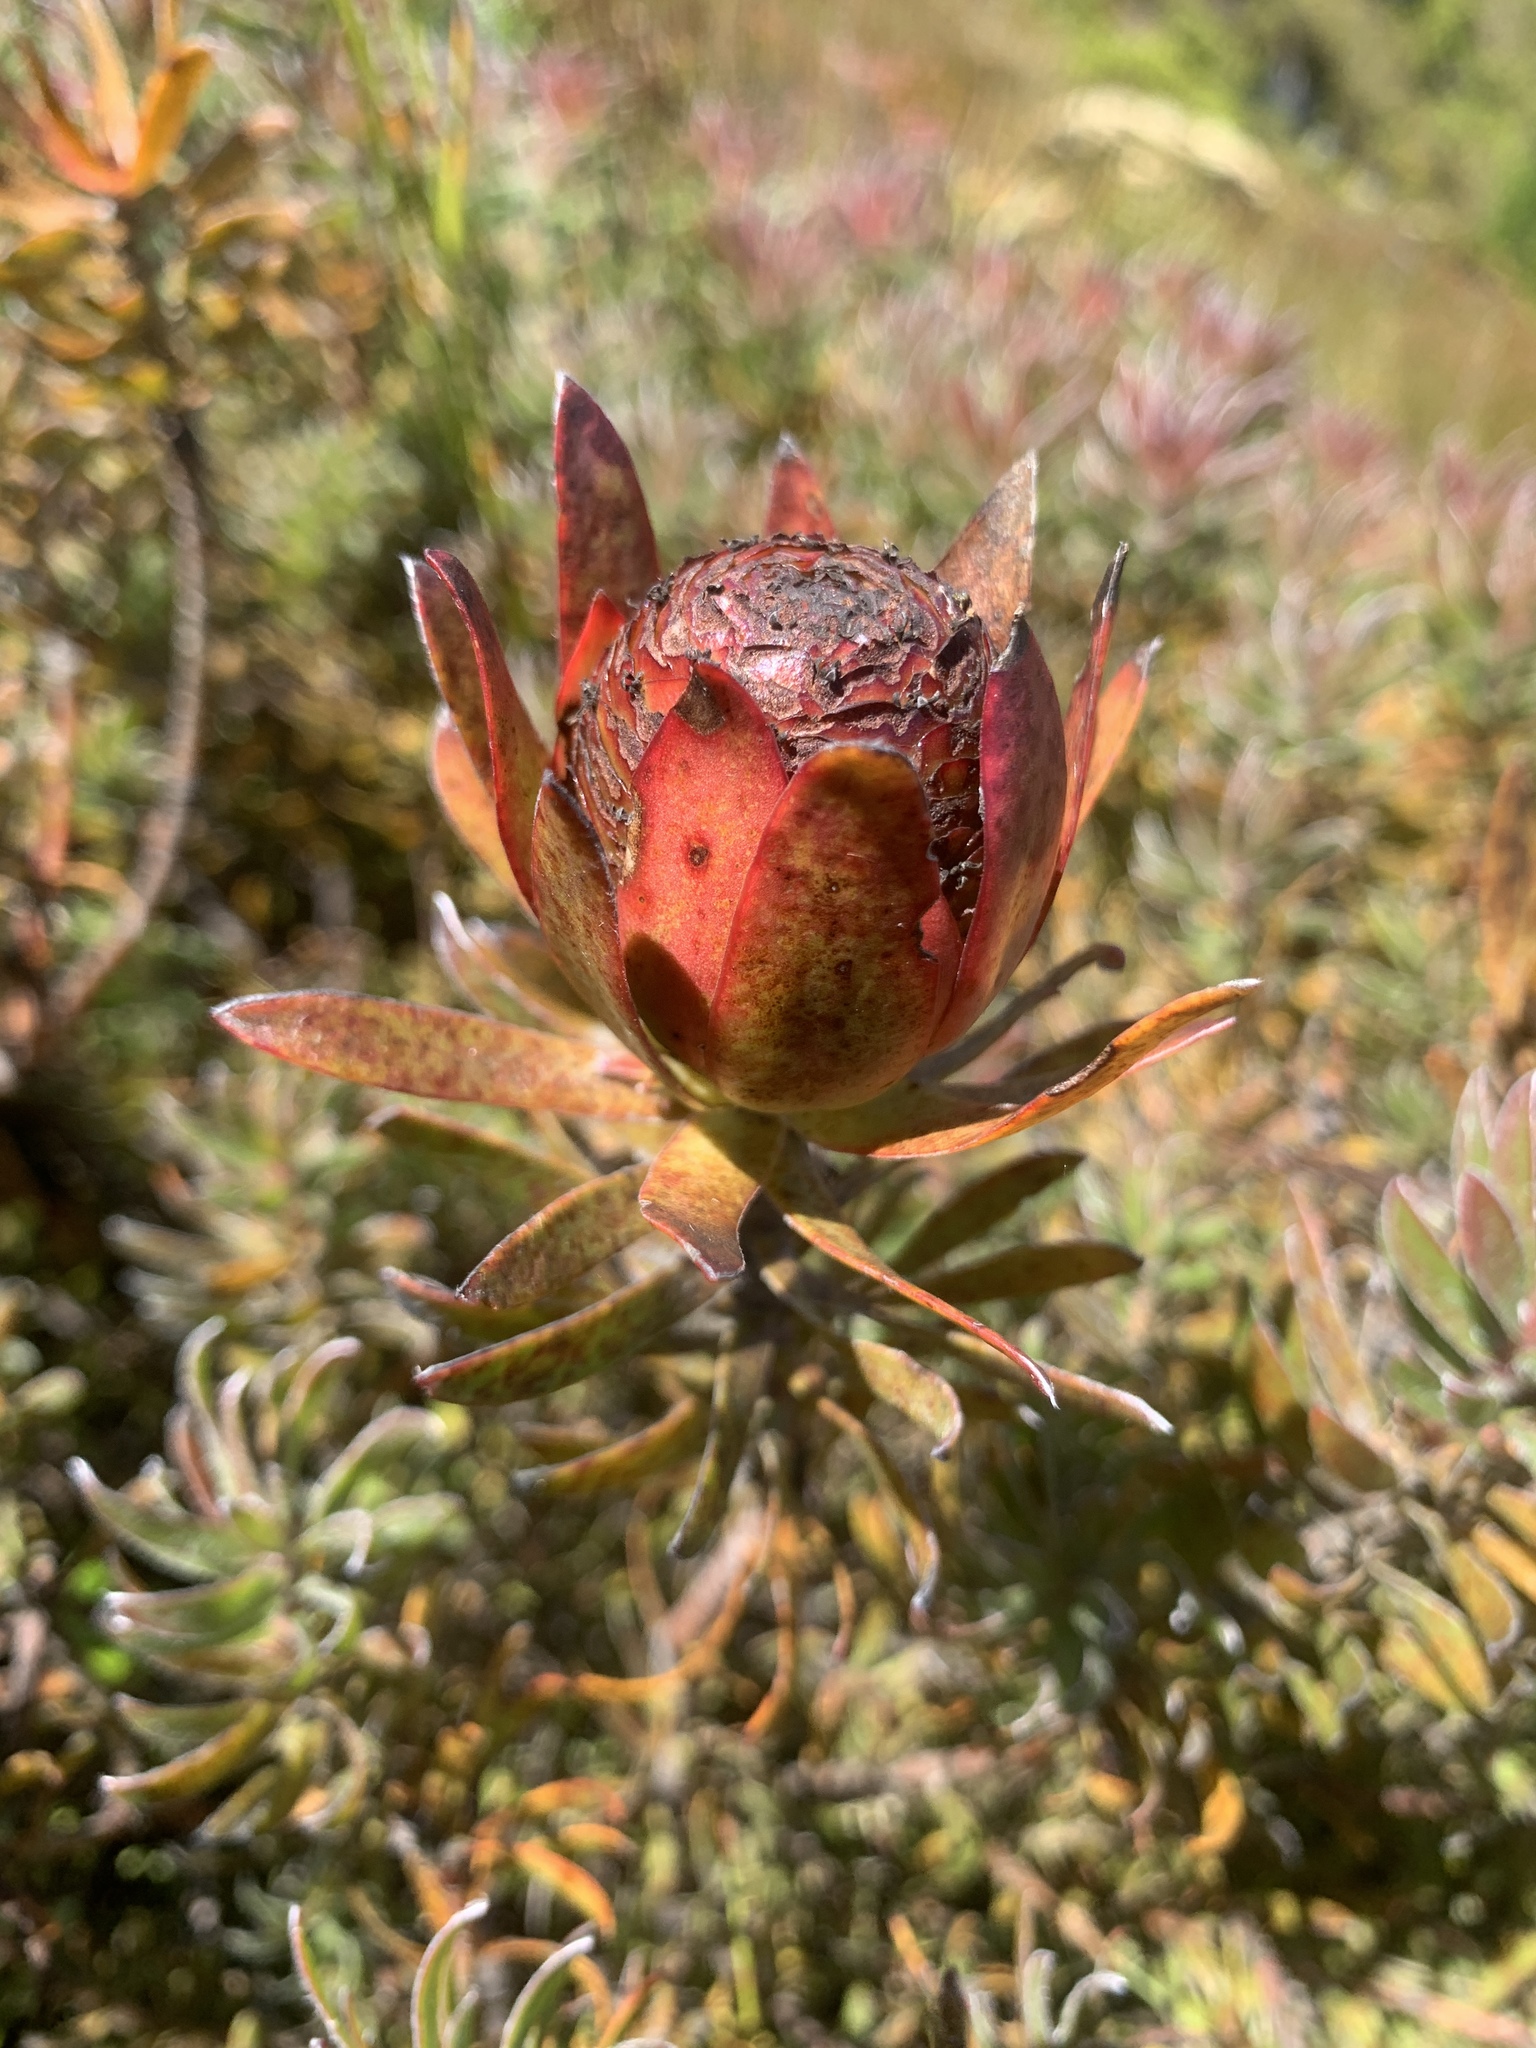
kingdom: Plantae
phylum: Tracheophyta
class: Magnoliopsida
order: Proteales
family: Proteaceae
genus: Leucadendron
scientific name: Leucadendron spissifolium
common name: Spear-leaf conebush
